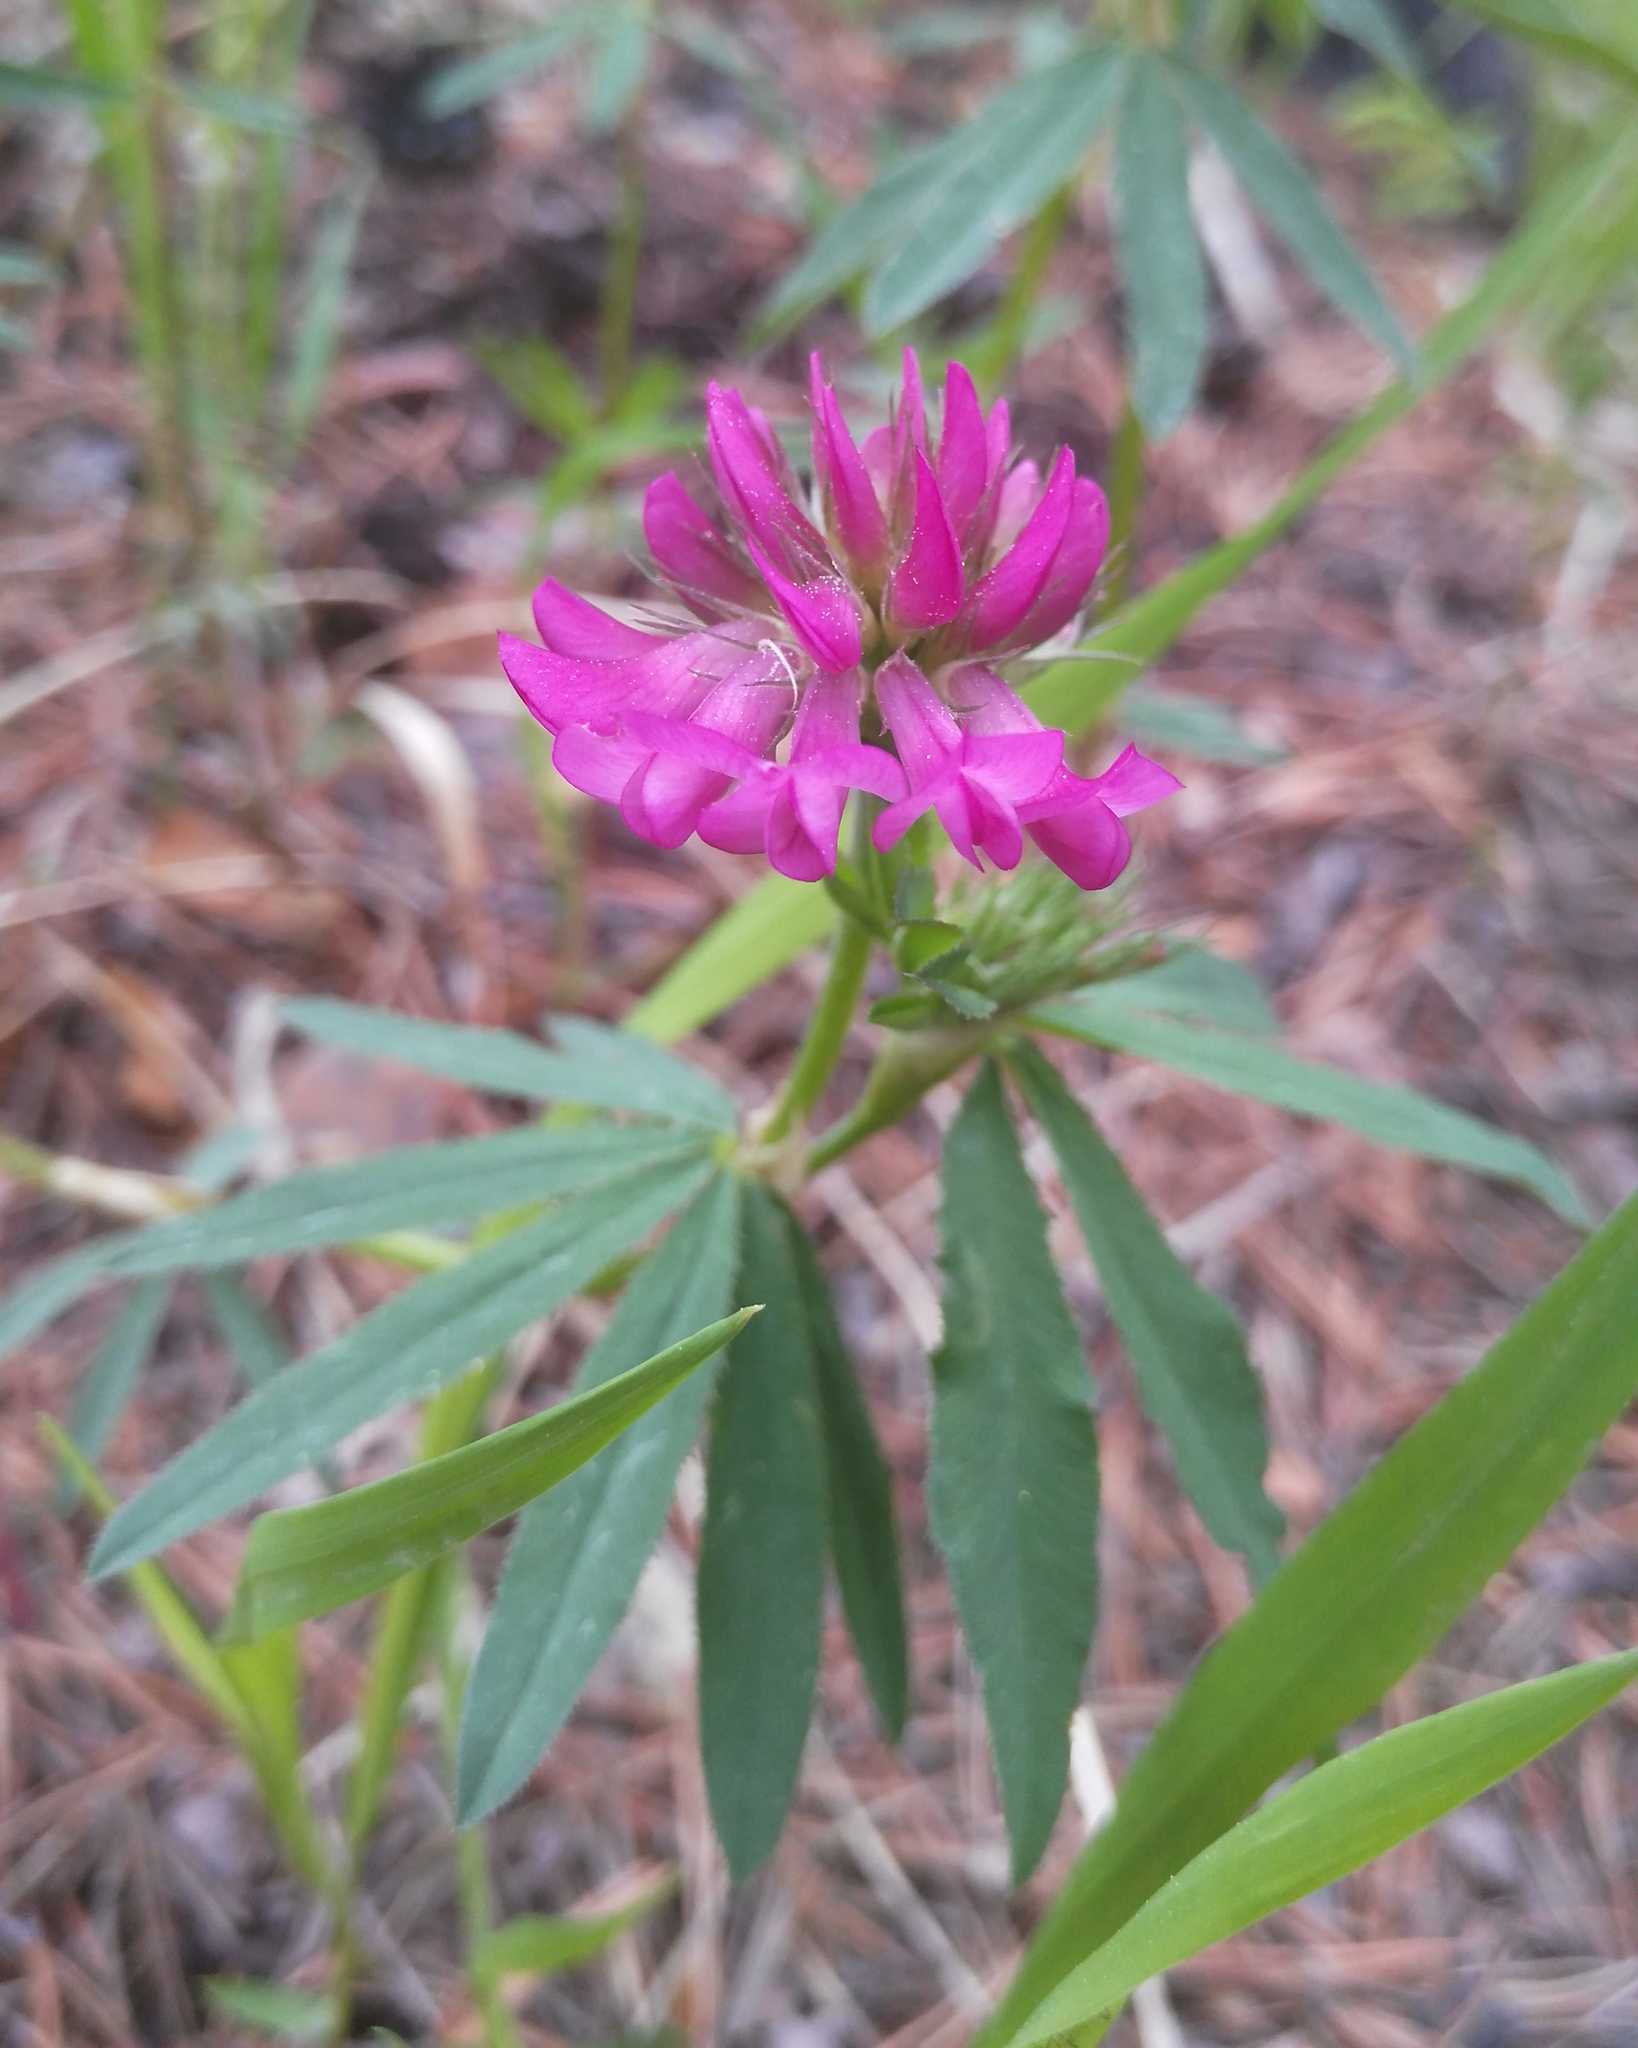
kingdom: Plantae
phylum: Tracheophyta
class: Magnoliopsida
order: Fabales
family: Fabaceae
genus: Trifolium
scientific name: Trifolium lupinaster
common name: Lupine clover
